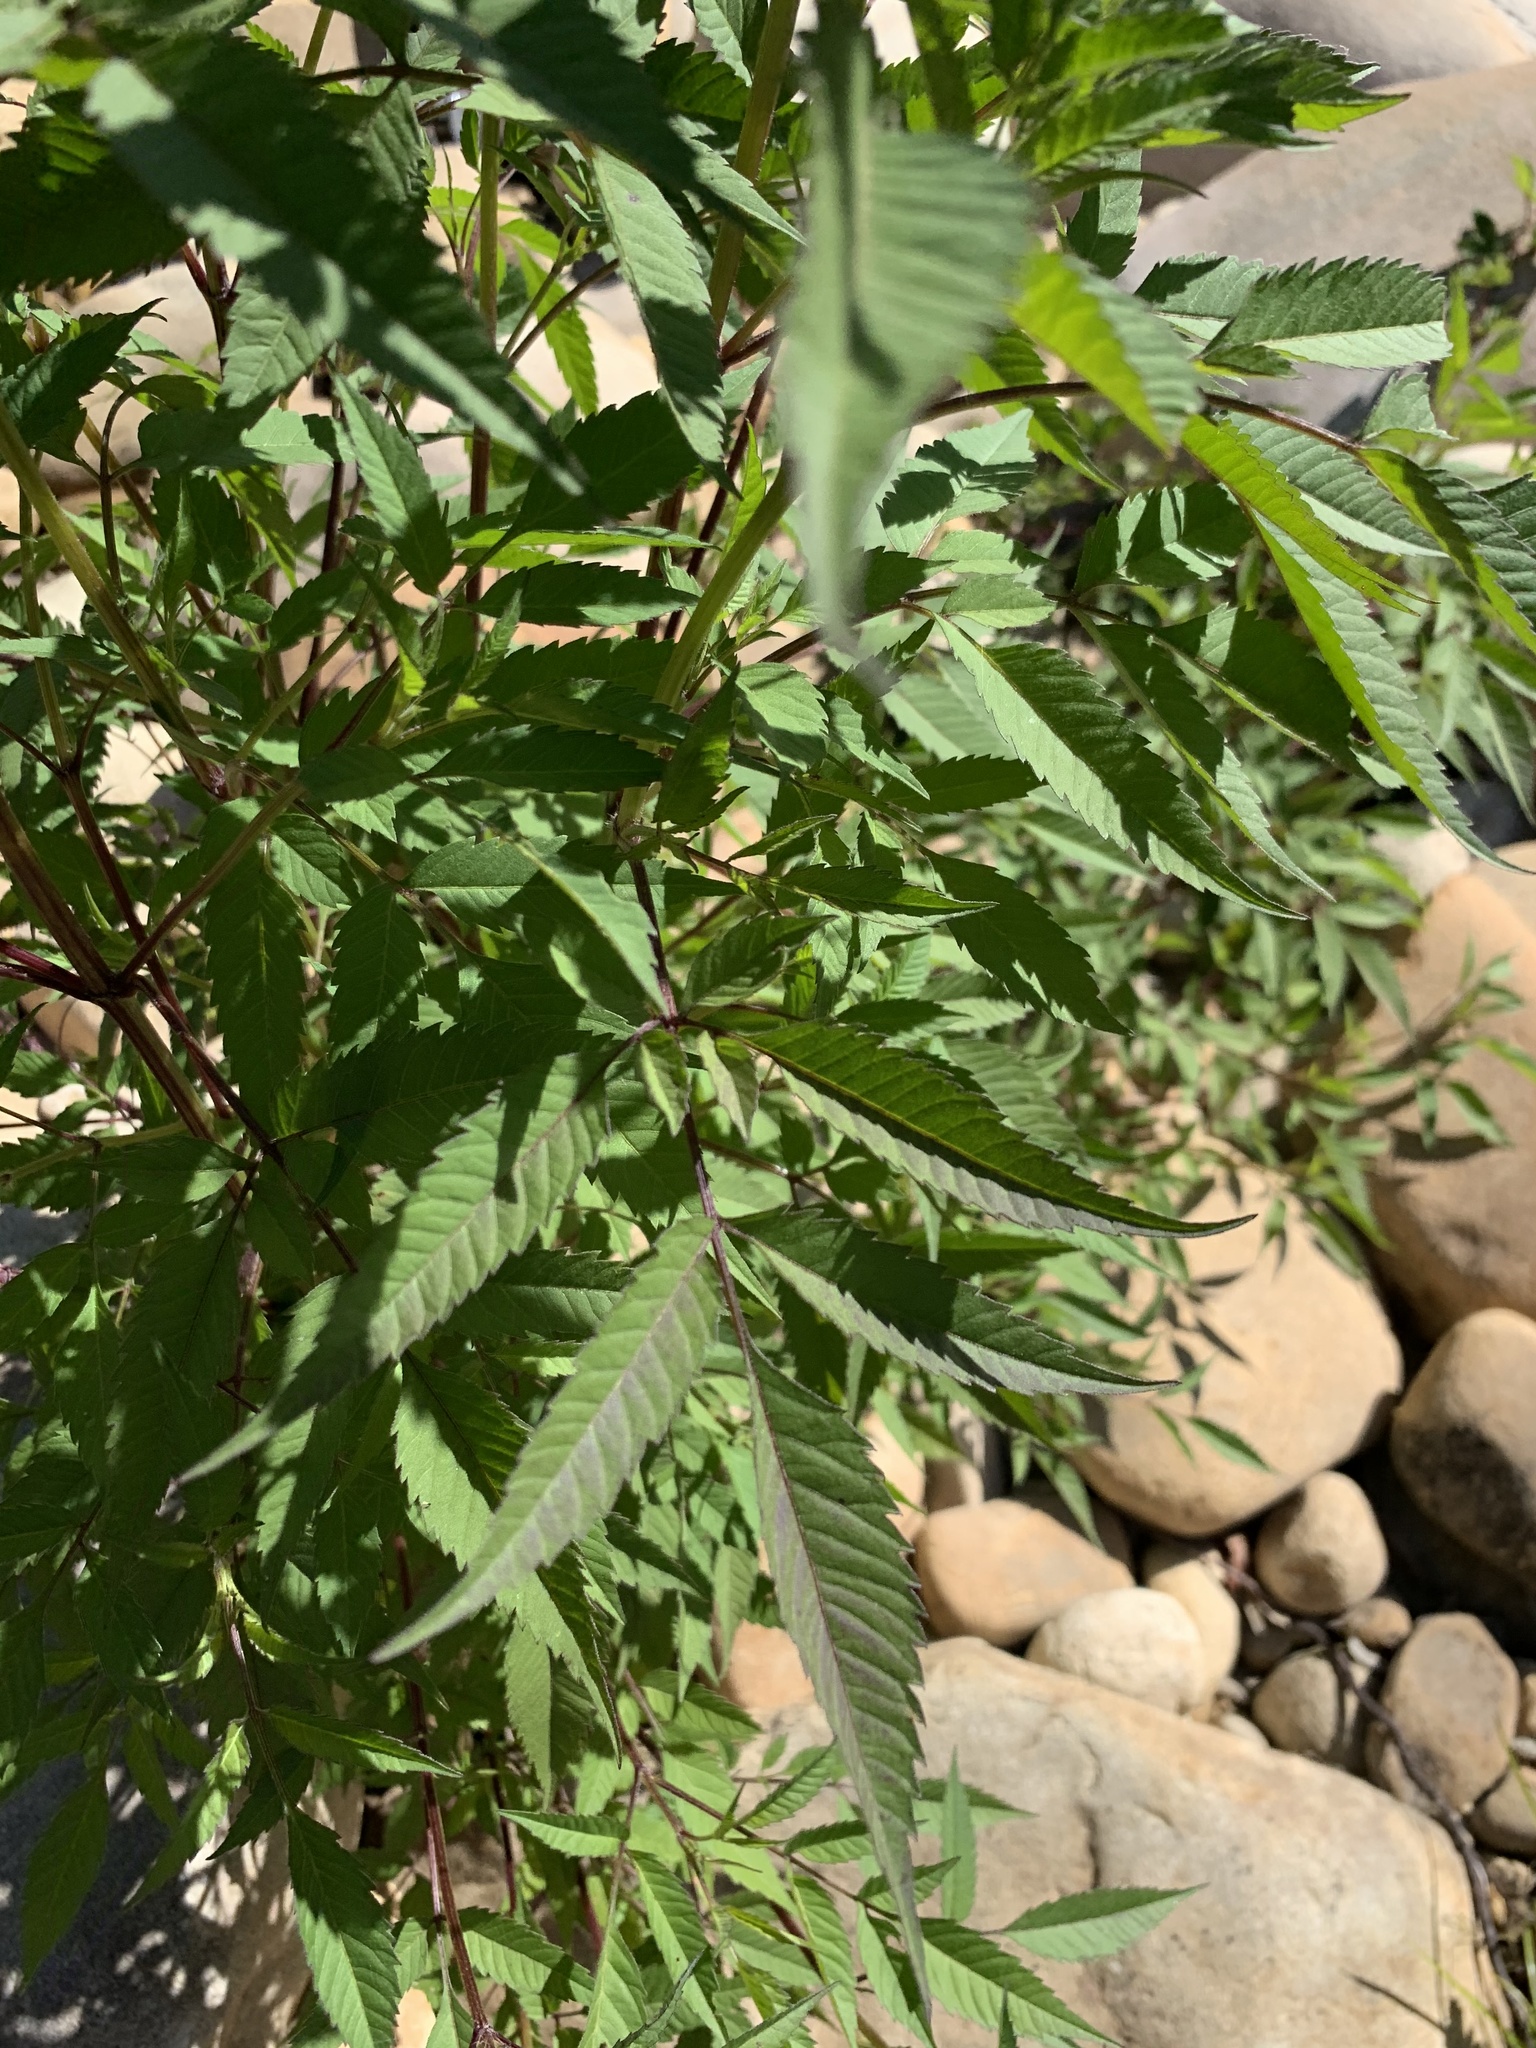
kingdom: Plantae
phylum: Tracheophyta
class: Magnoliopsida
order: Asterales
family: Asteraceae
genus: Bidens
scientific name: Bidens frondosa
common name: Beggarticks
